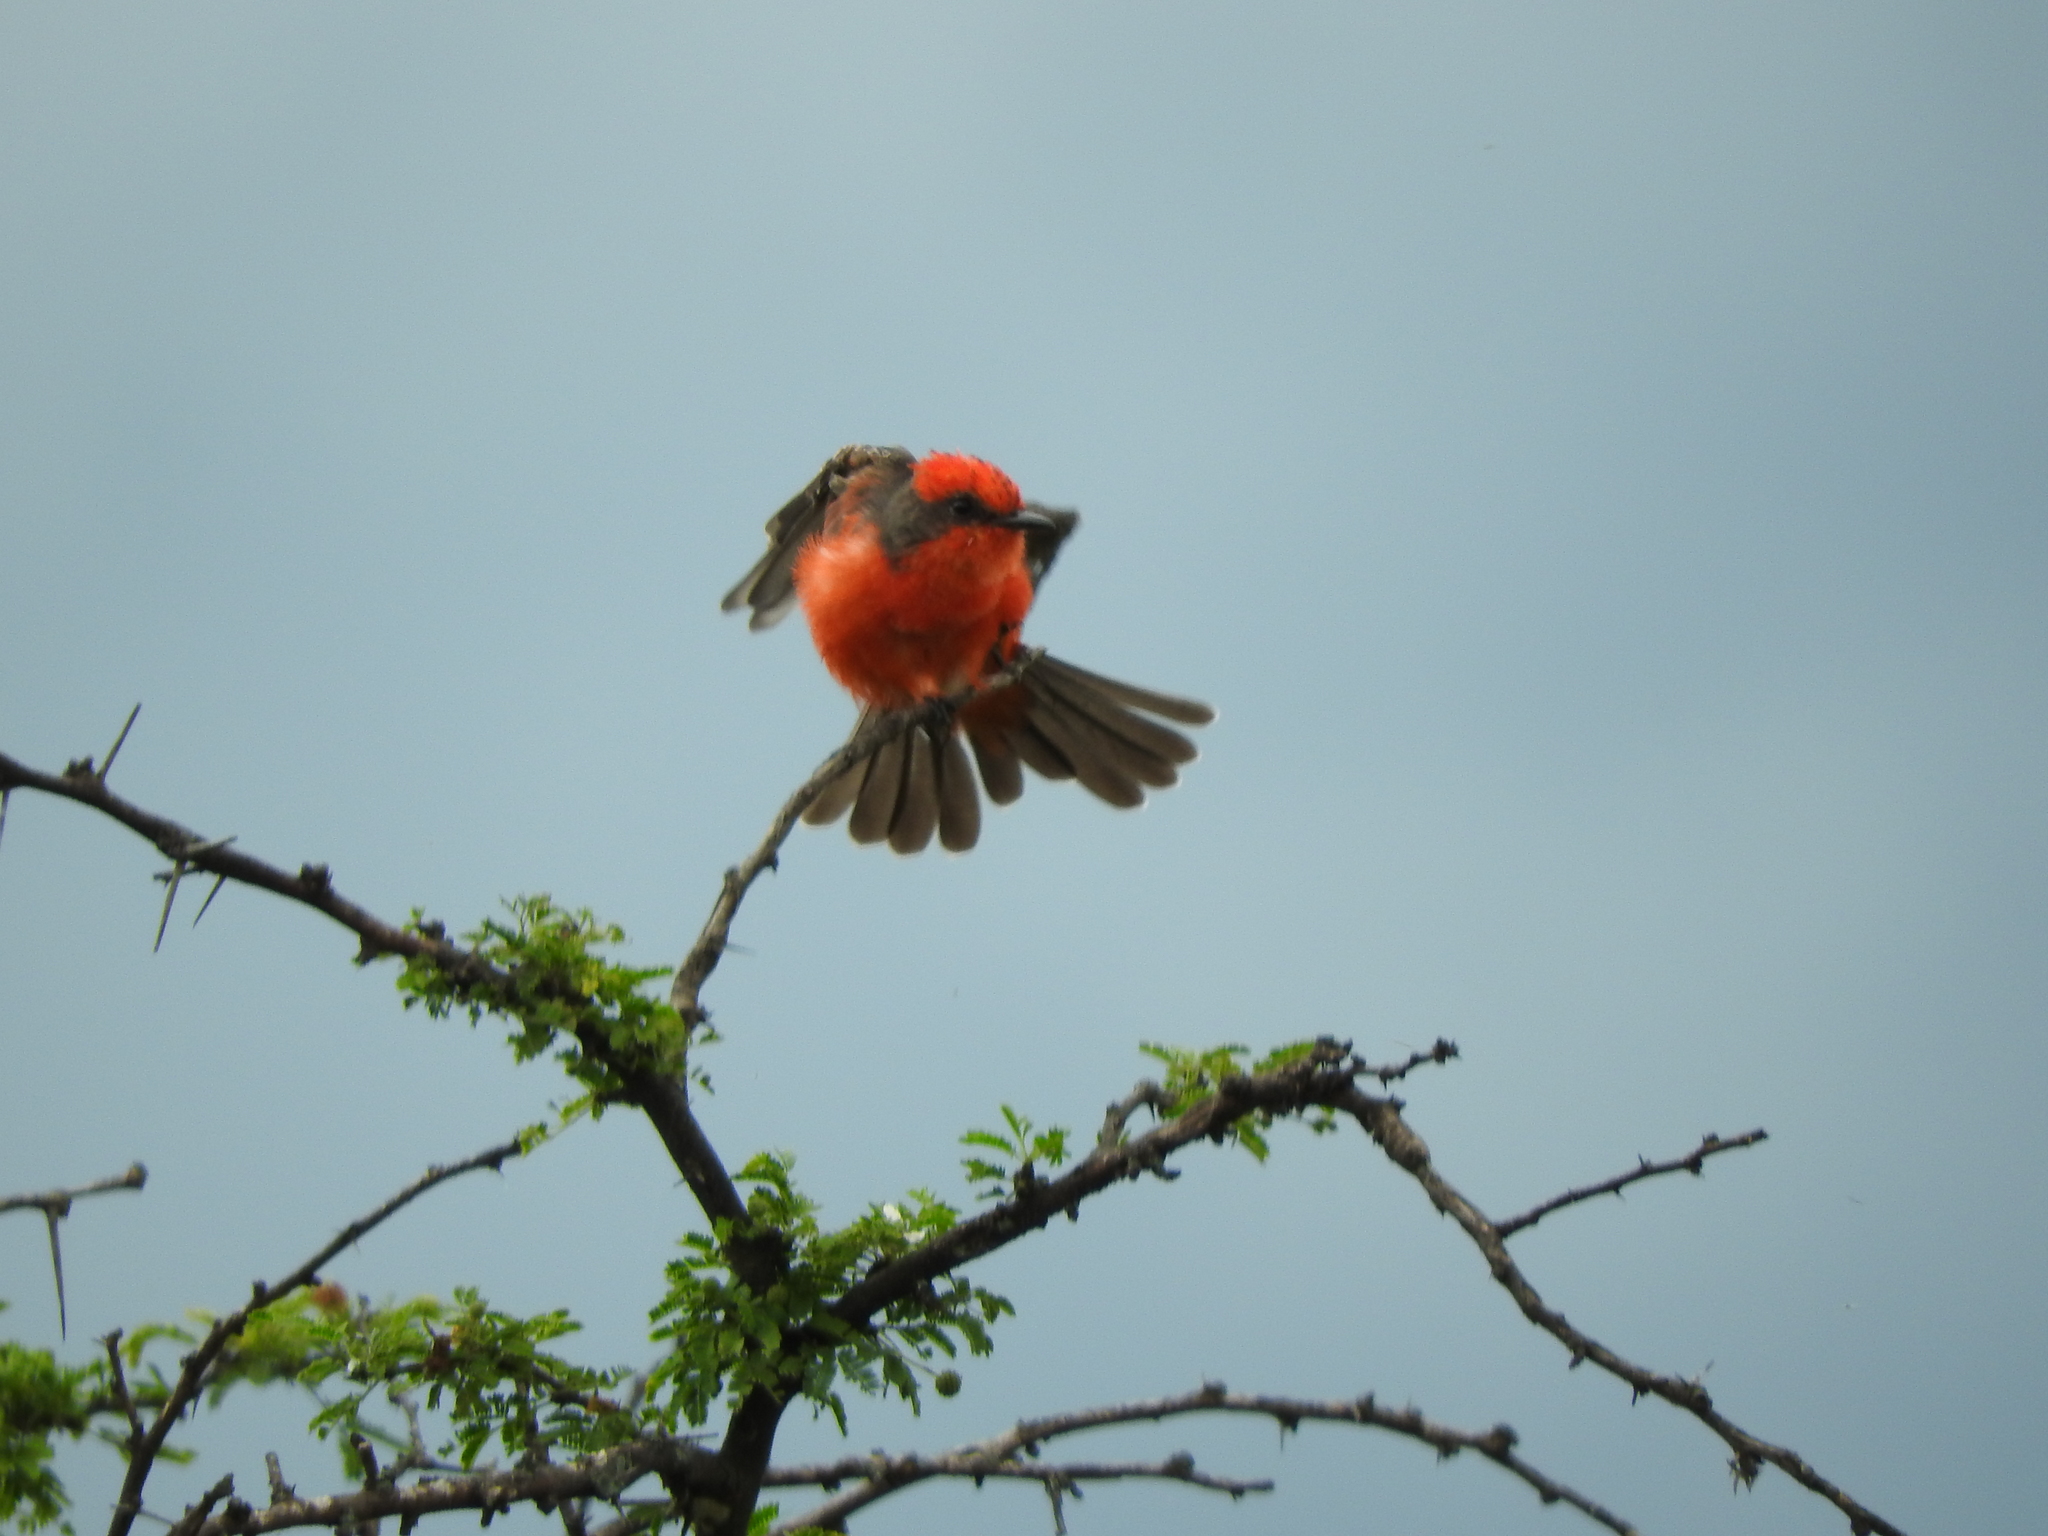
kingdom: Animalia
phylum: Chordata
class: Aves
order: Passeriformes
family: Tyrannidae
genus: Pyrocephalus
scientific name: Pyrocephalus rubinus
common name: Vermilion flycatcher
